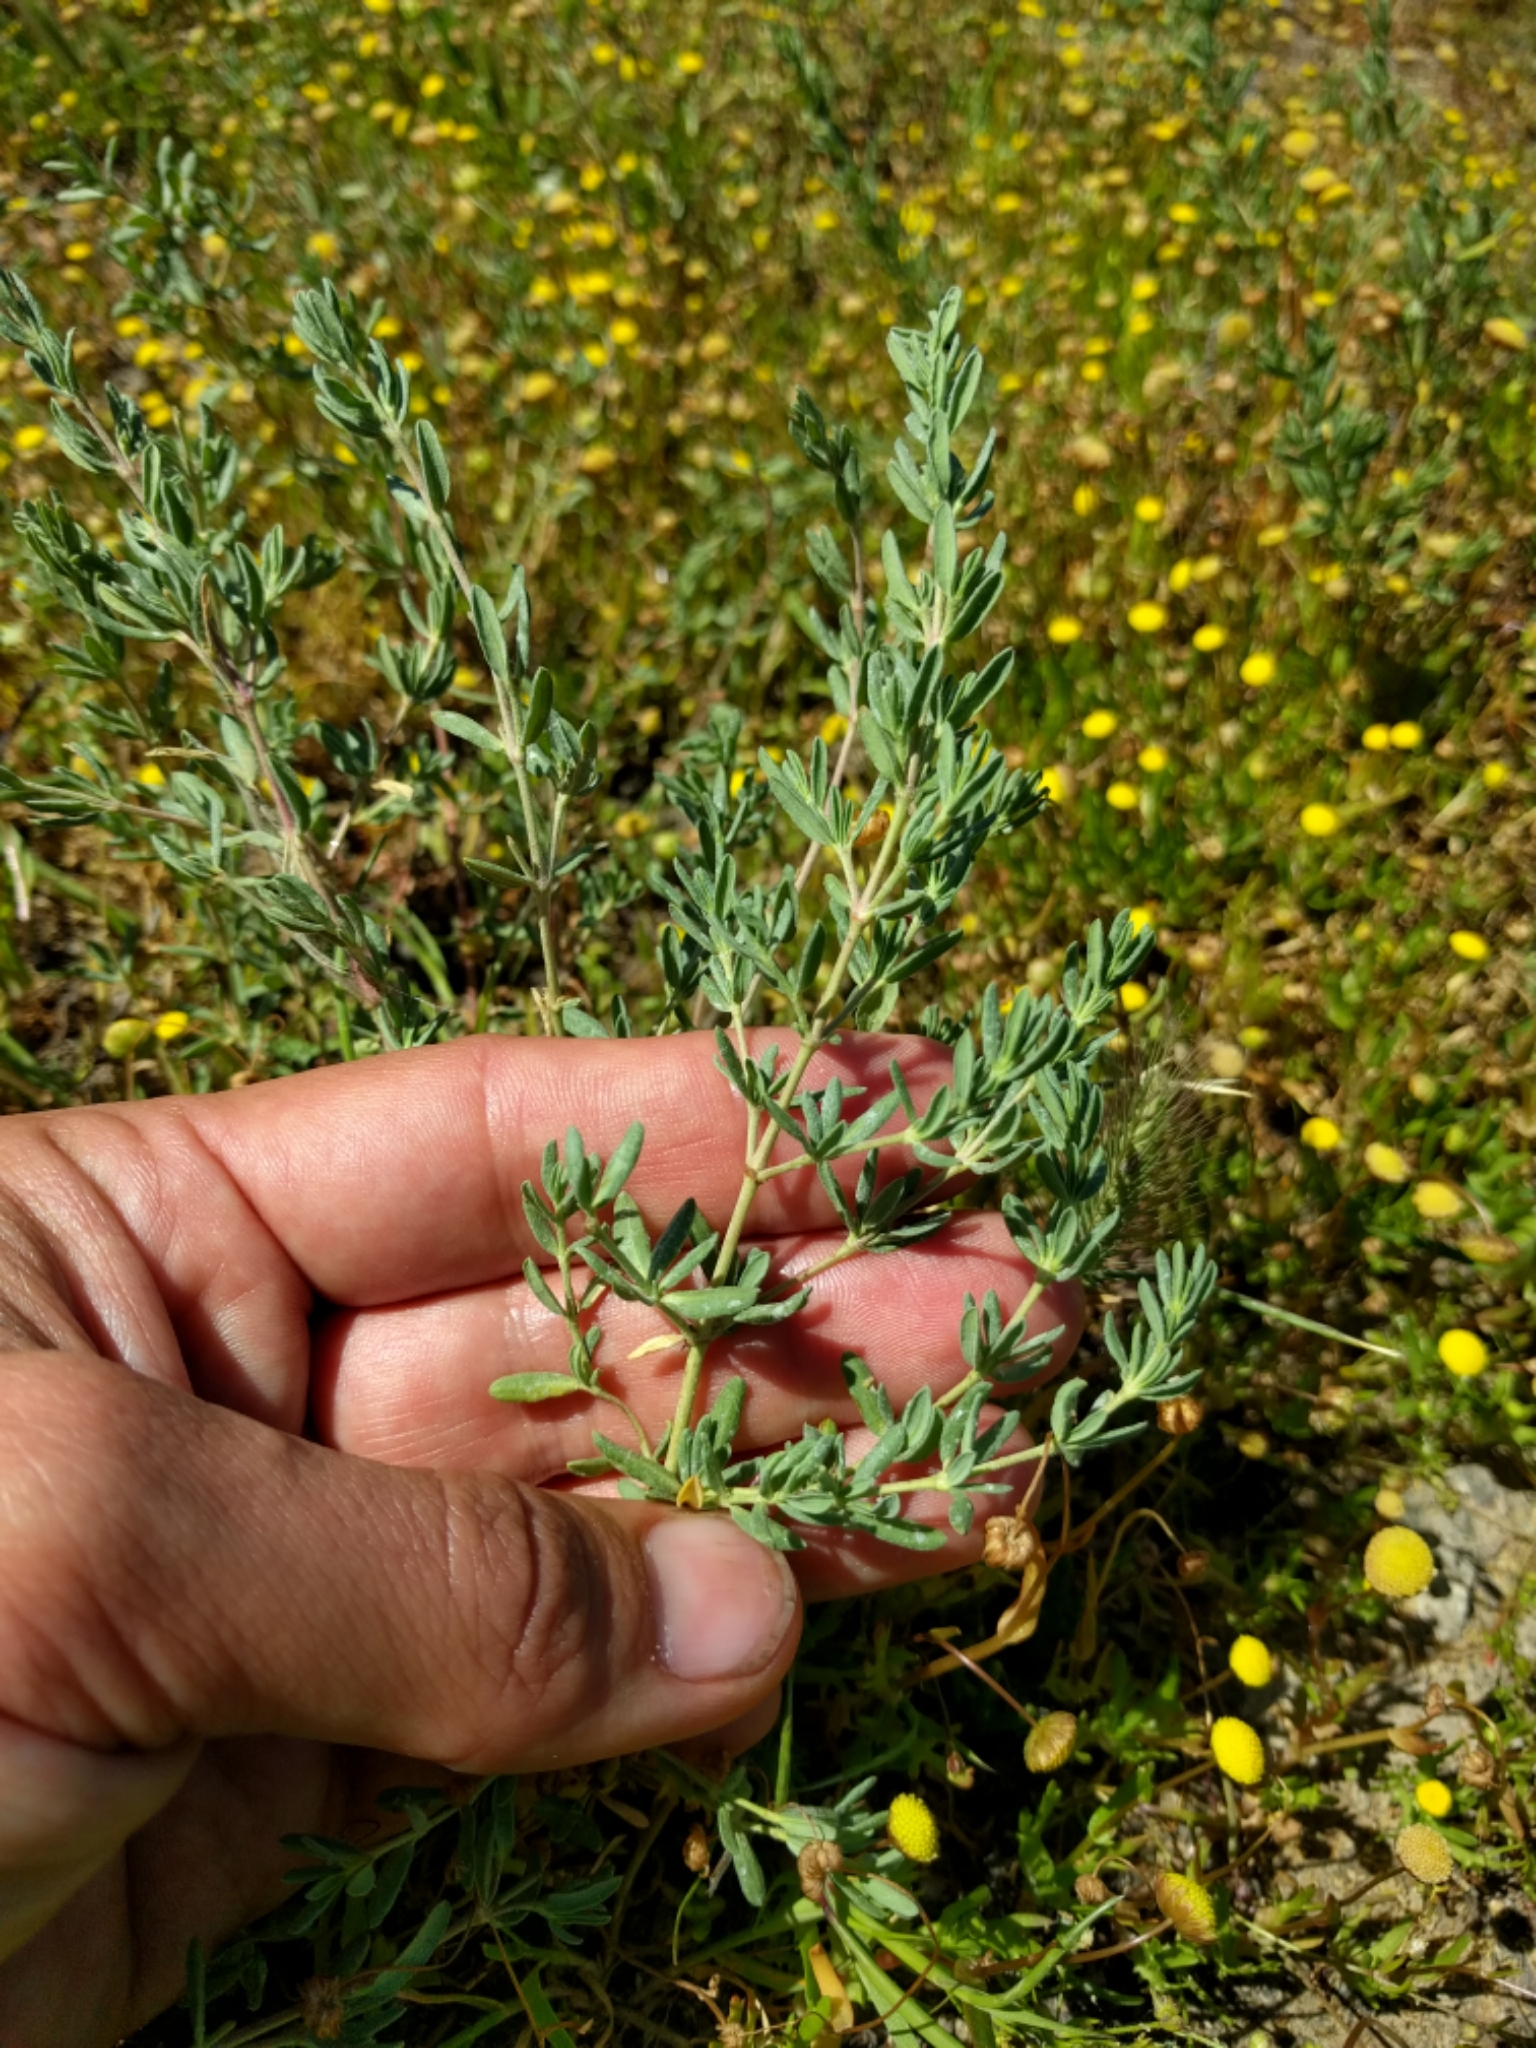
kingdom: Plantae
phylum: Tracheophyta
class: Magnoliopsida
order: Caryophyllales
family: Frankeniaceae
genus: Frankenia
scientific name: Frankenia salina
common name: Alkali seaheath
